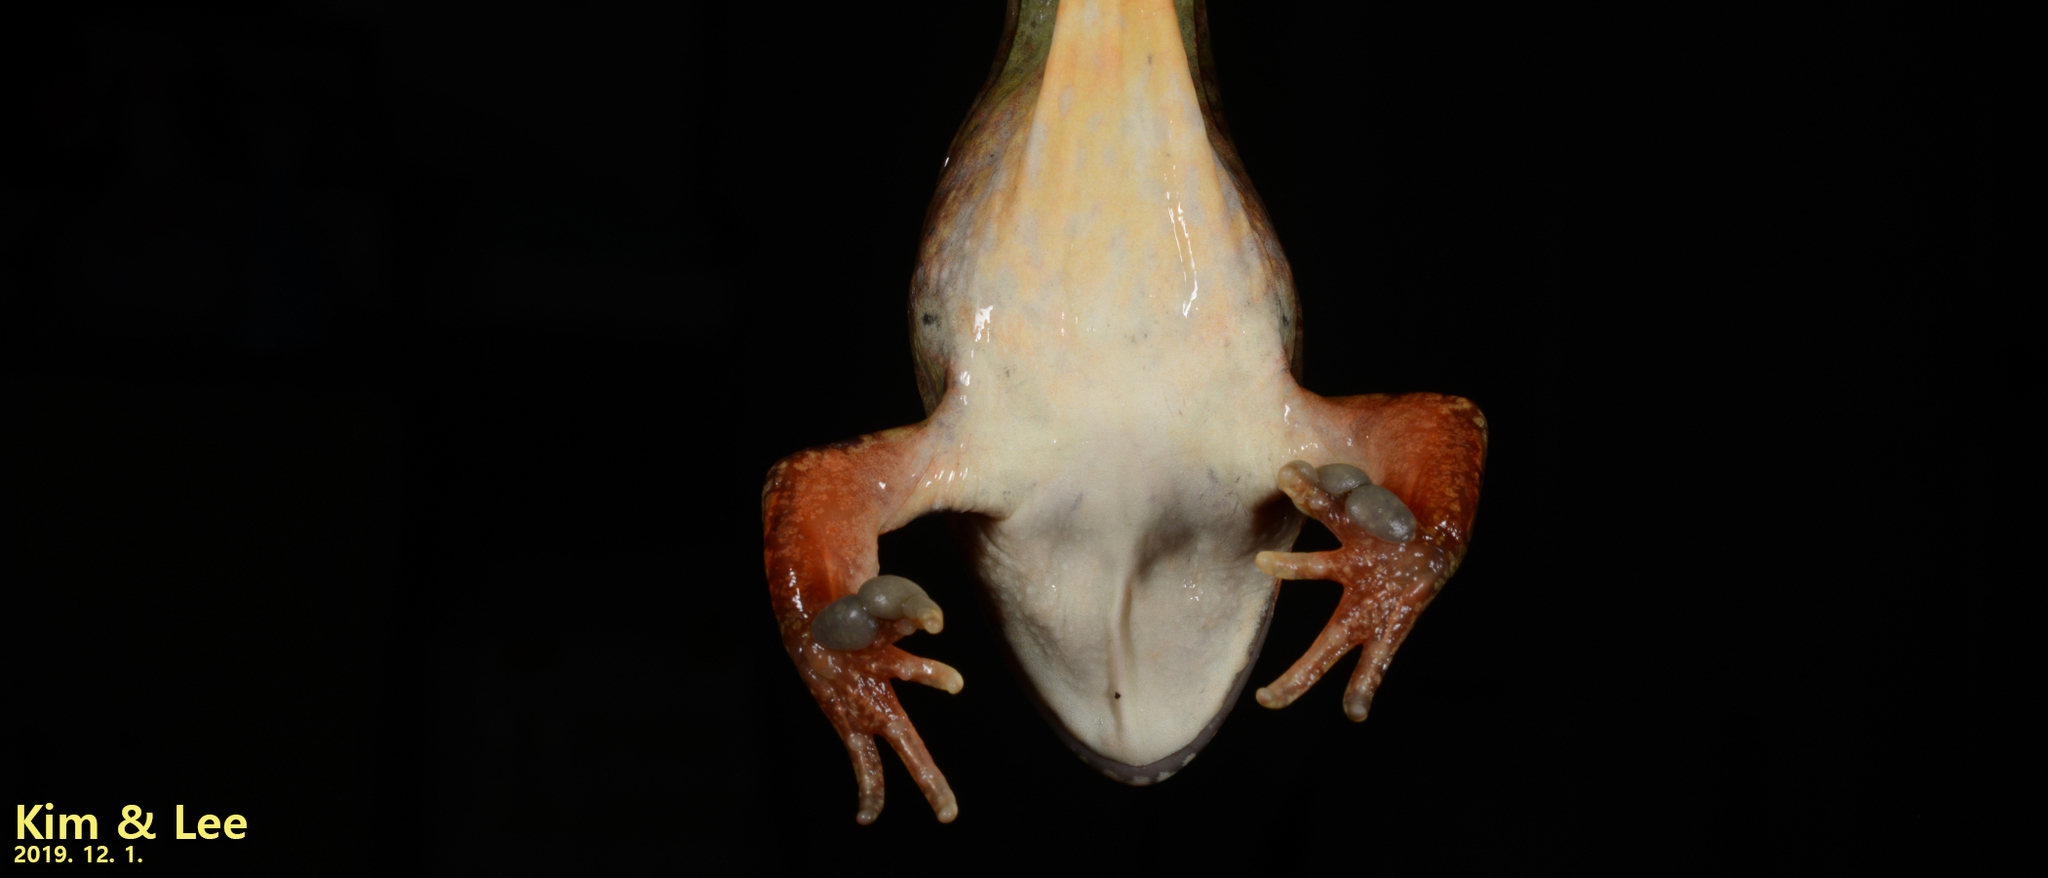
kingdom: Animalia
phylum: Chordata
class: Amphibia
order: Anura
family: Ranidae
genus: Rana
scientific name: Rana dybowskii
